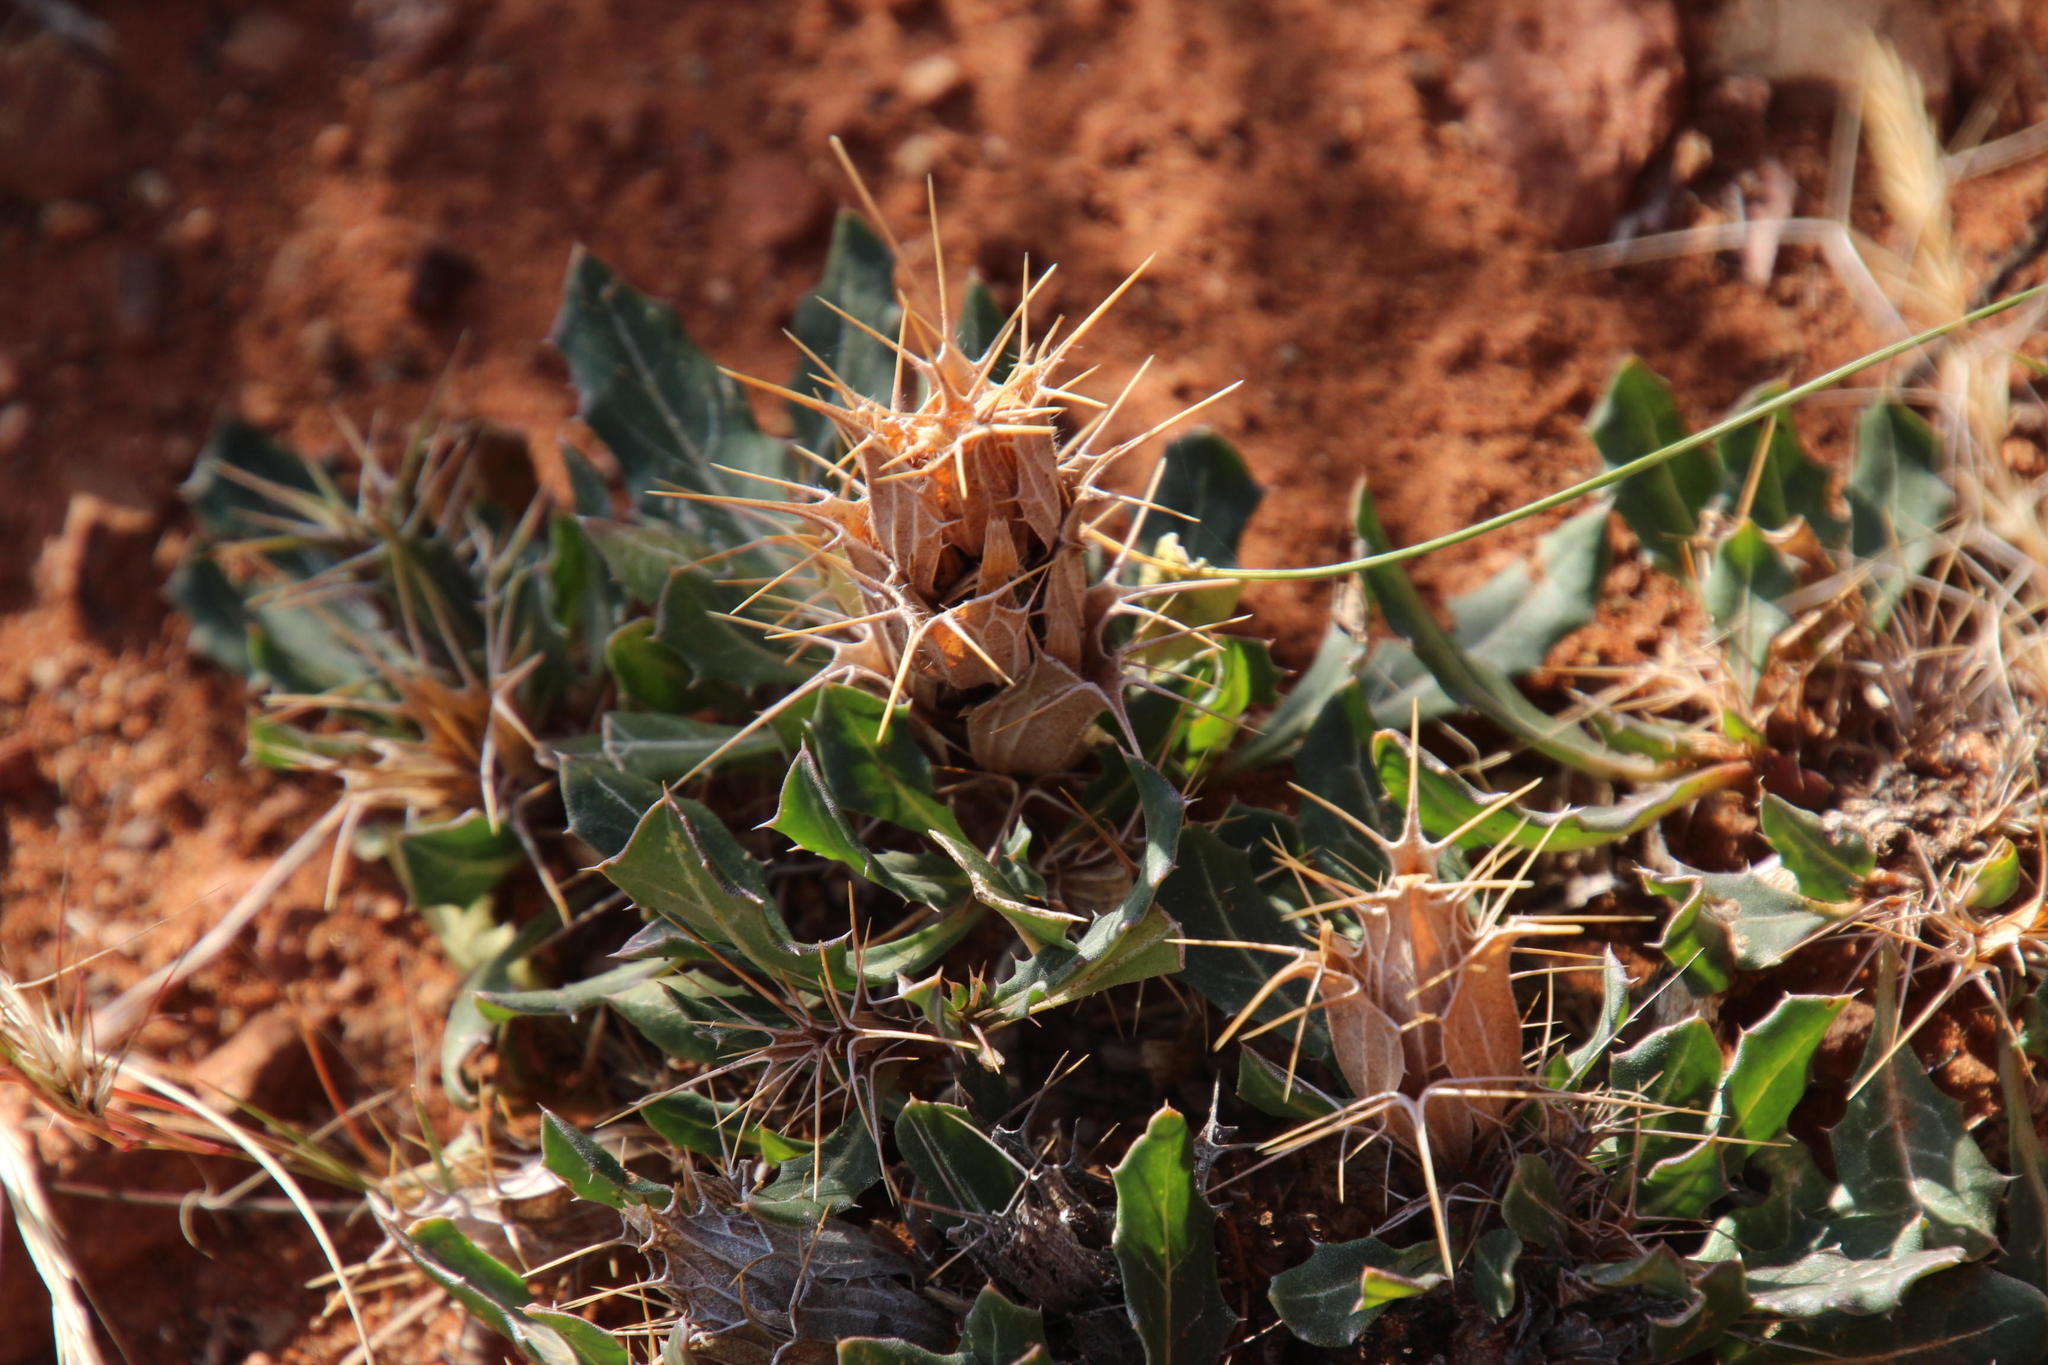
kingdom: Plantae
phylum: Tracheophyta
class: Magnoliopsida
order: Lamiales
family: Acanthaceae
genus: Blepharis
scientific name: Blepharis mitrata
